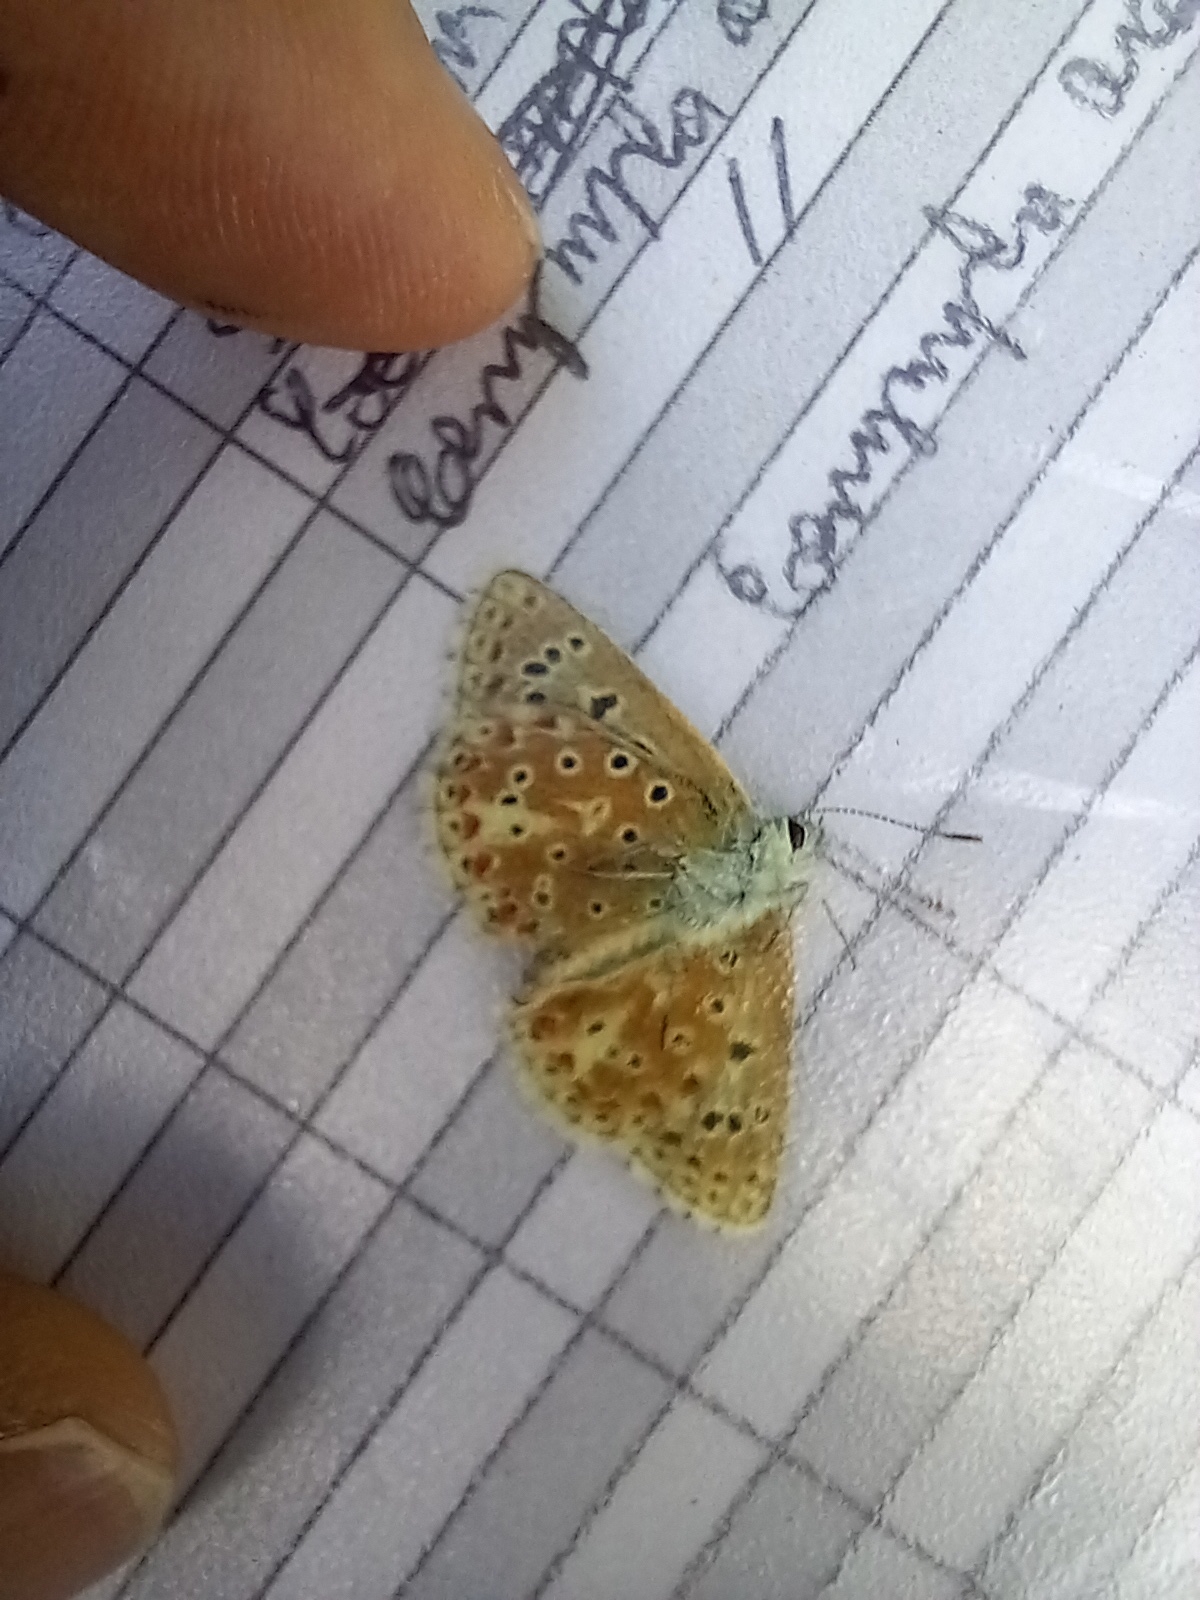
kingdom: Animalia
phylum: Arthropoda
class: Insecta
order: Lepidoptera
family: Lycaenidae
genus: Lysandra
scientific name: Lysandra bellargus
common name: Adonis blue
